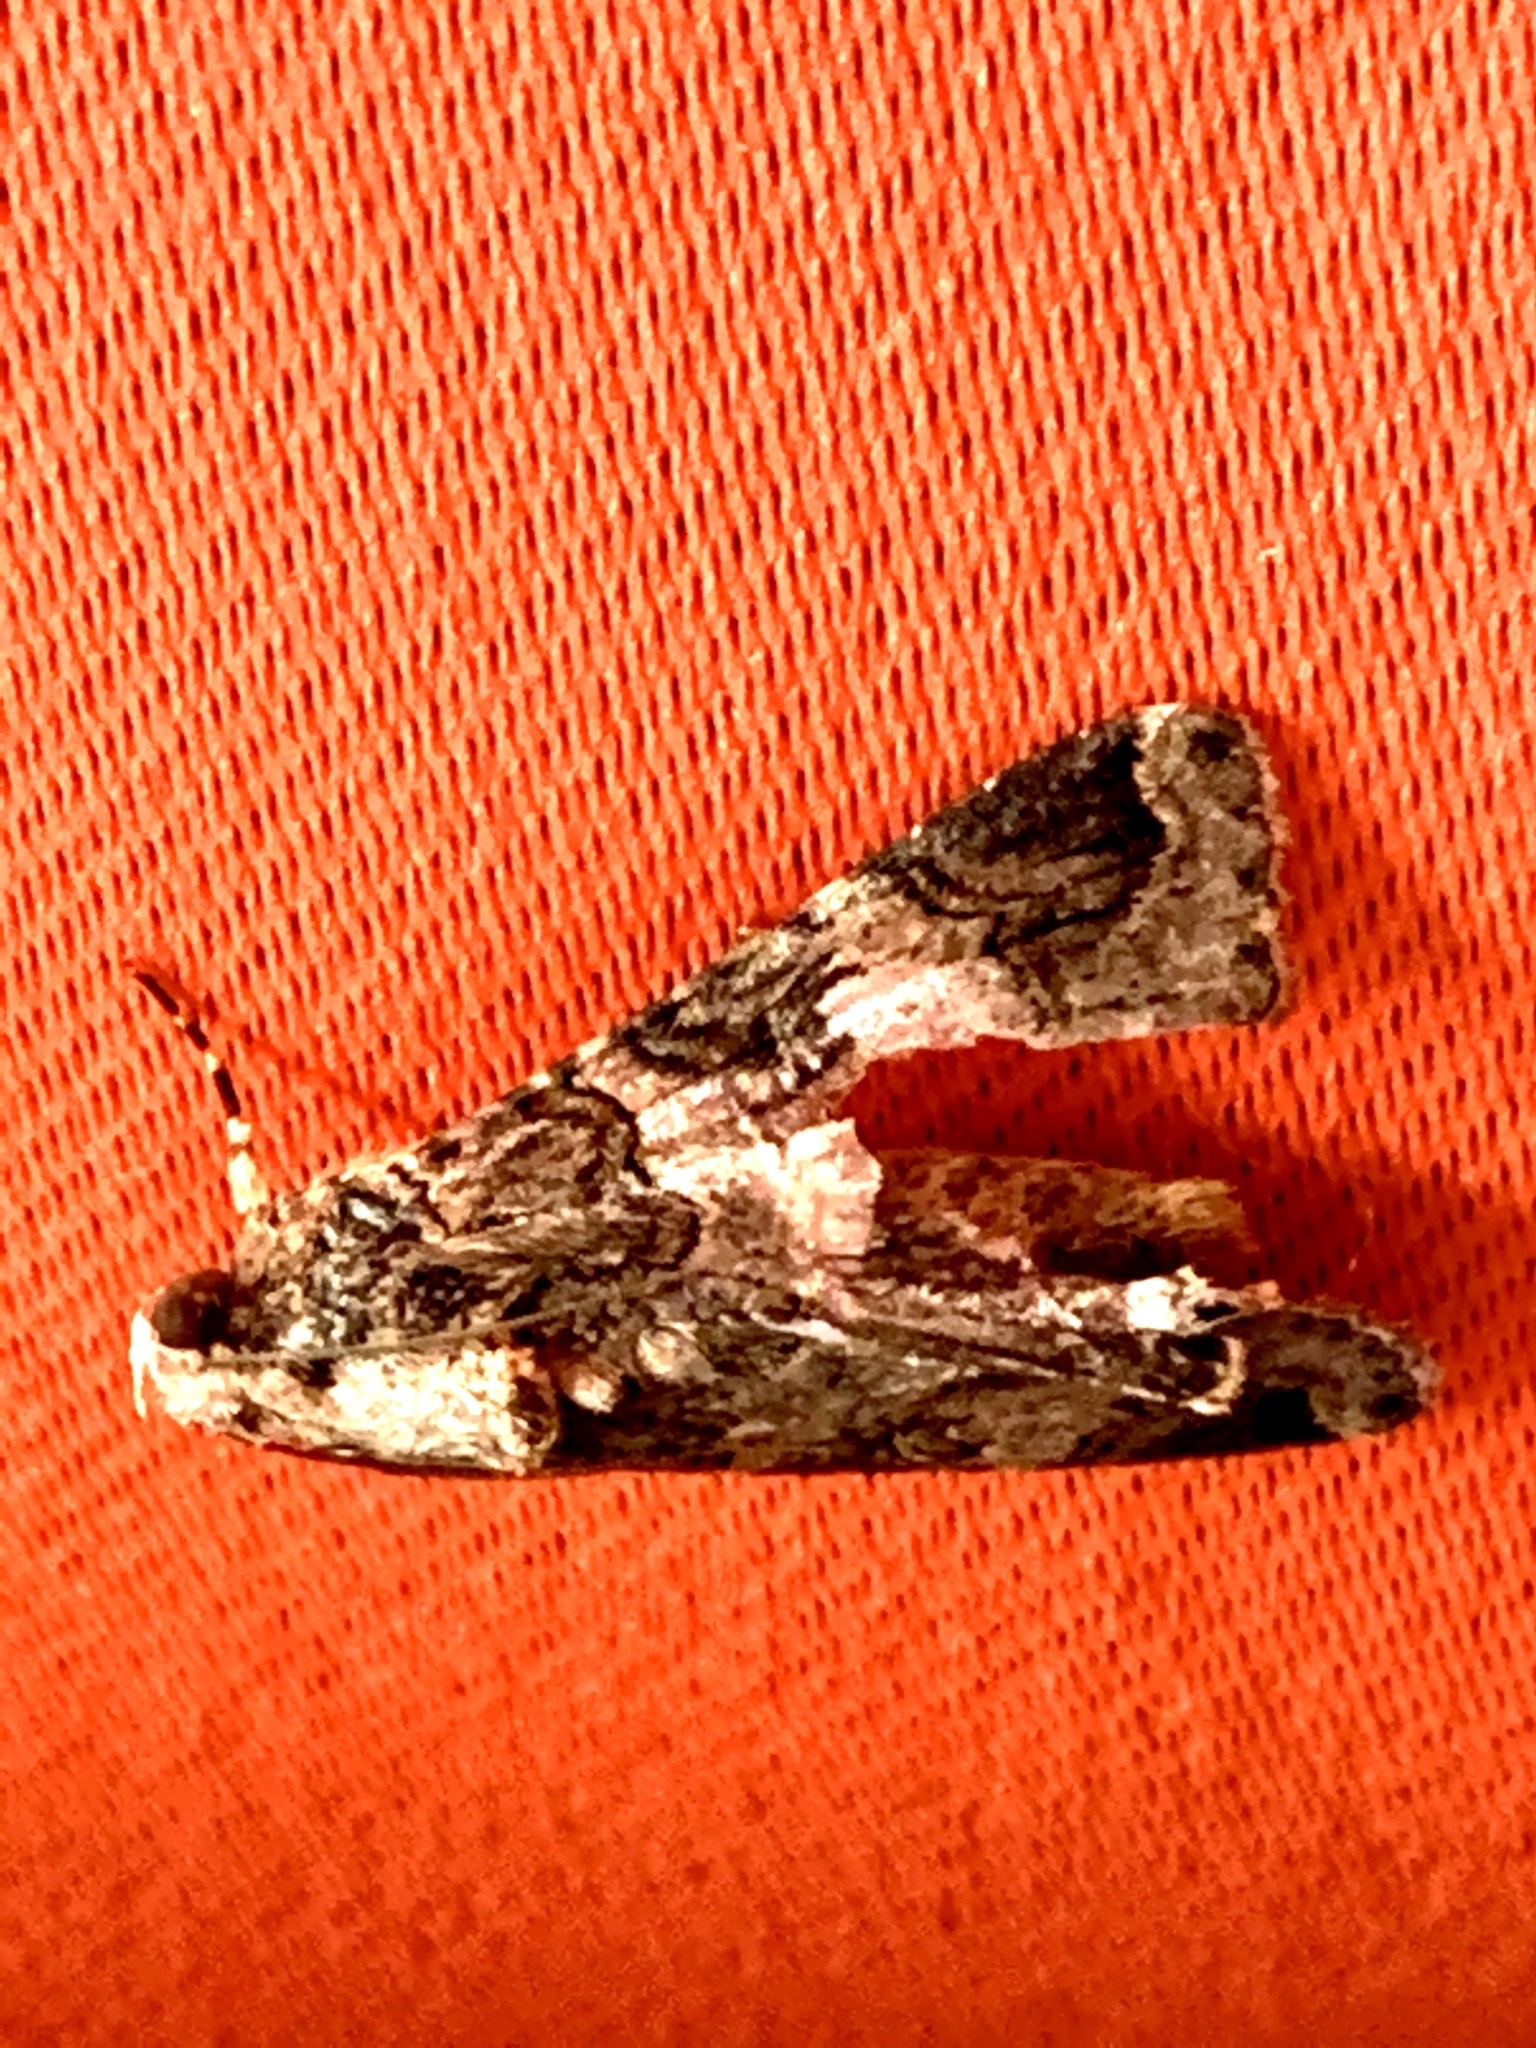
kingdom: Animalia
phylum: Arthropoda
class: Insecta
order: Lepidoptera
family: Erebidae
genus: Melipotis
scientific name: Melipotis famelica
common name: Famelica melipotis moth
